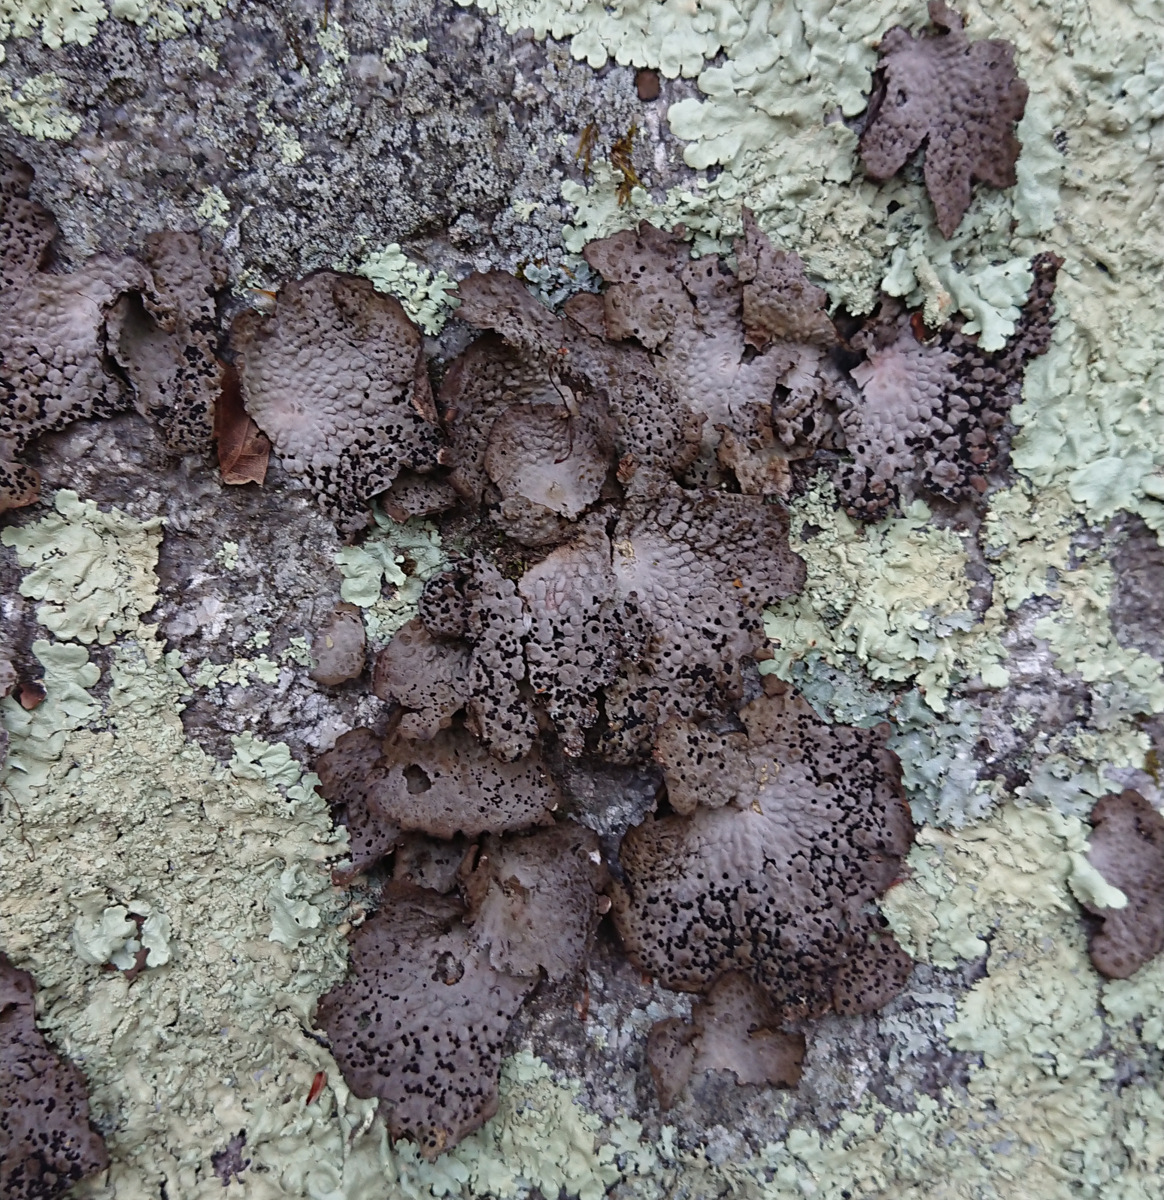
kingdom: Fungi
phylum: Ascomycota
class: Lecanoromycetes
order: Umbilicariales
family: Umbilicariaceae
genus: Lasallia
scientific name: Lasallia papulosa
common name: Common toadskin lichen
